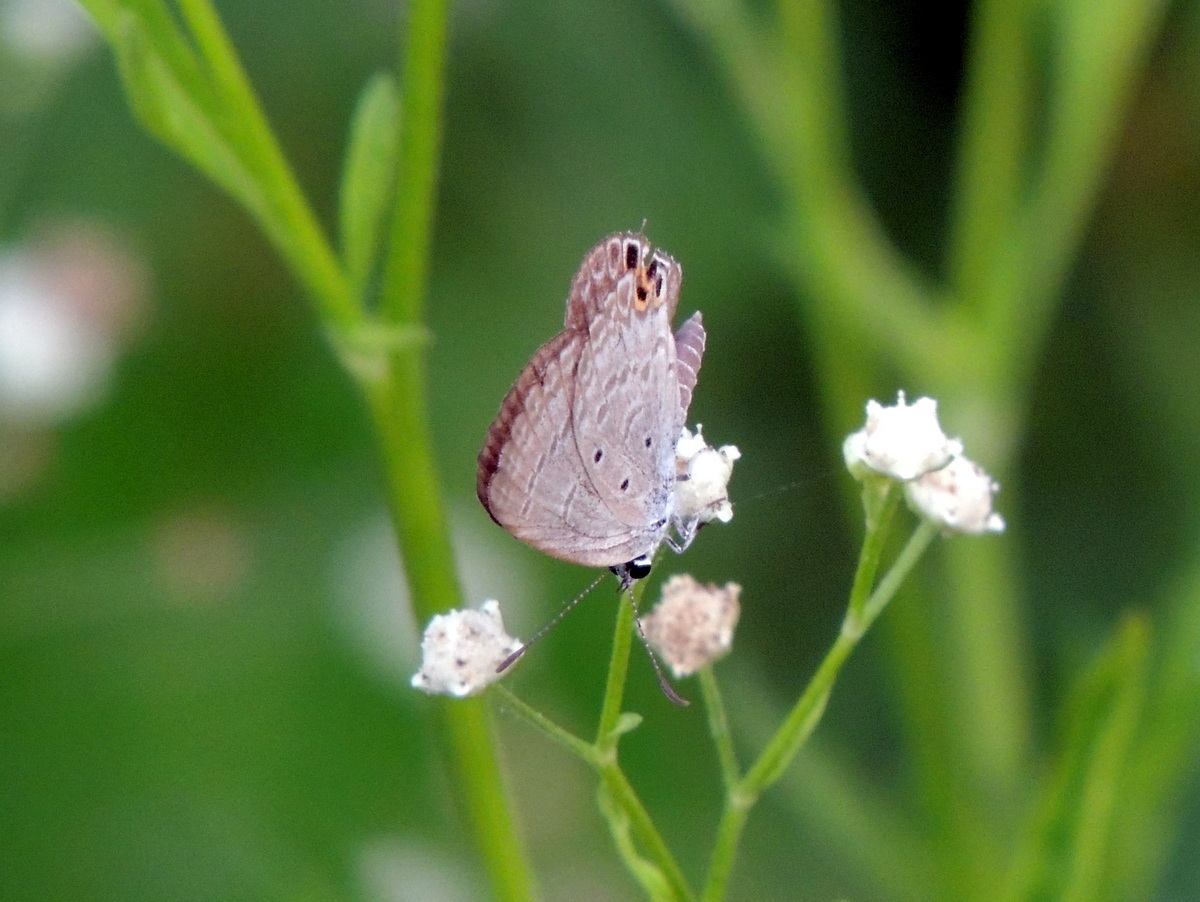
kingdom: Animalia
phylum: Arthropoda
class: Insecta
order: Lepidoptera
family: Lycaenidae
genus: Euchrysops
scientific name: Euchrysops cnejus
